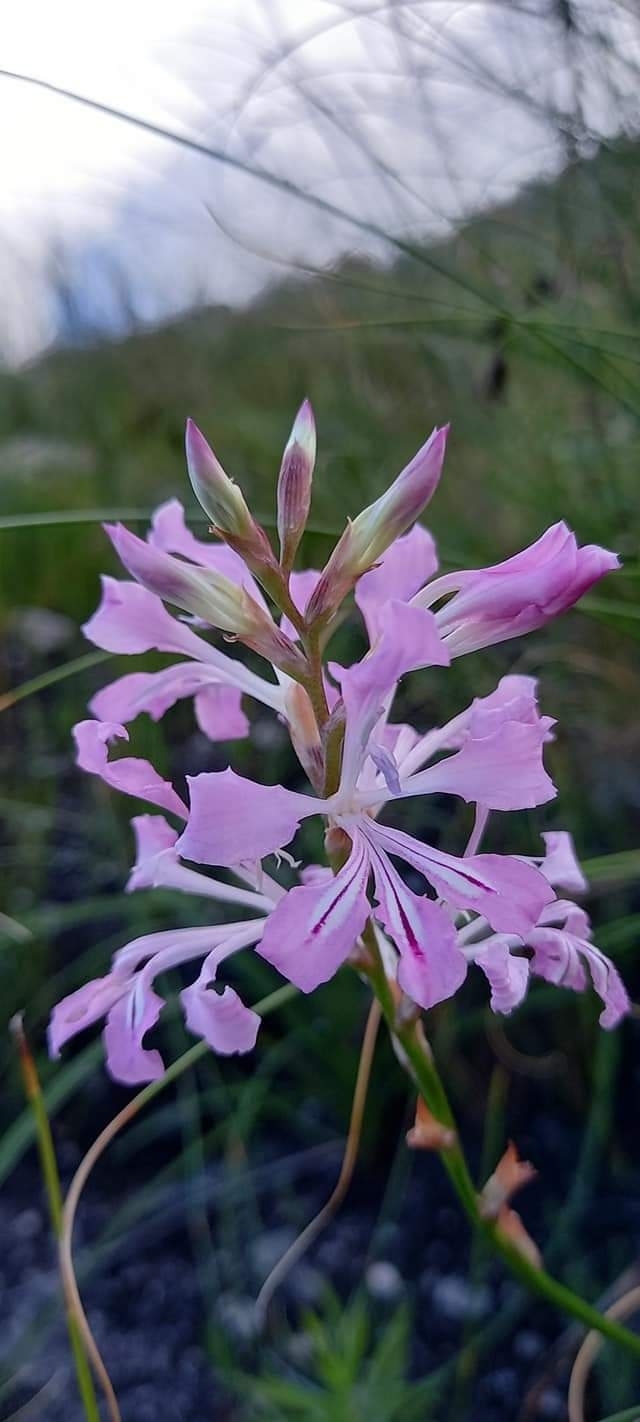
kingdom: Plantae
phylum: Tracheophyta
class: Liliopsida
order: Asparagales
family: Iridaceae
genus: Tritoniopsis
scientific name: Tritoniopsis lata
